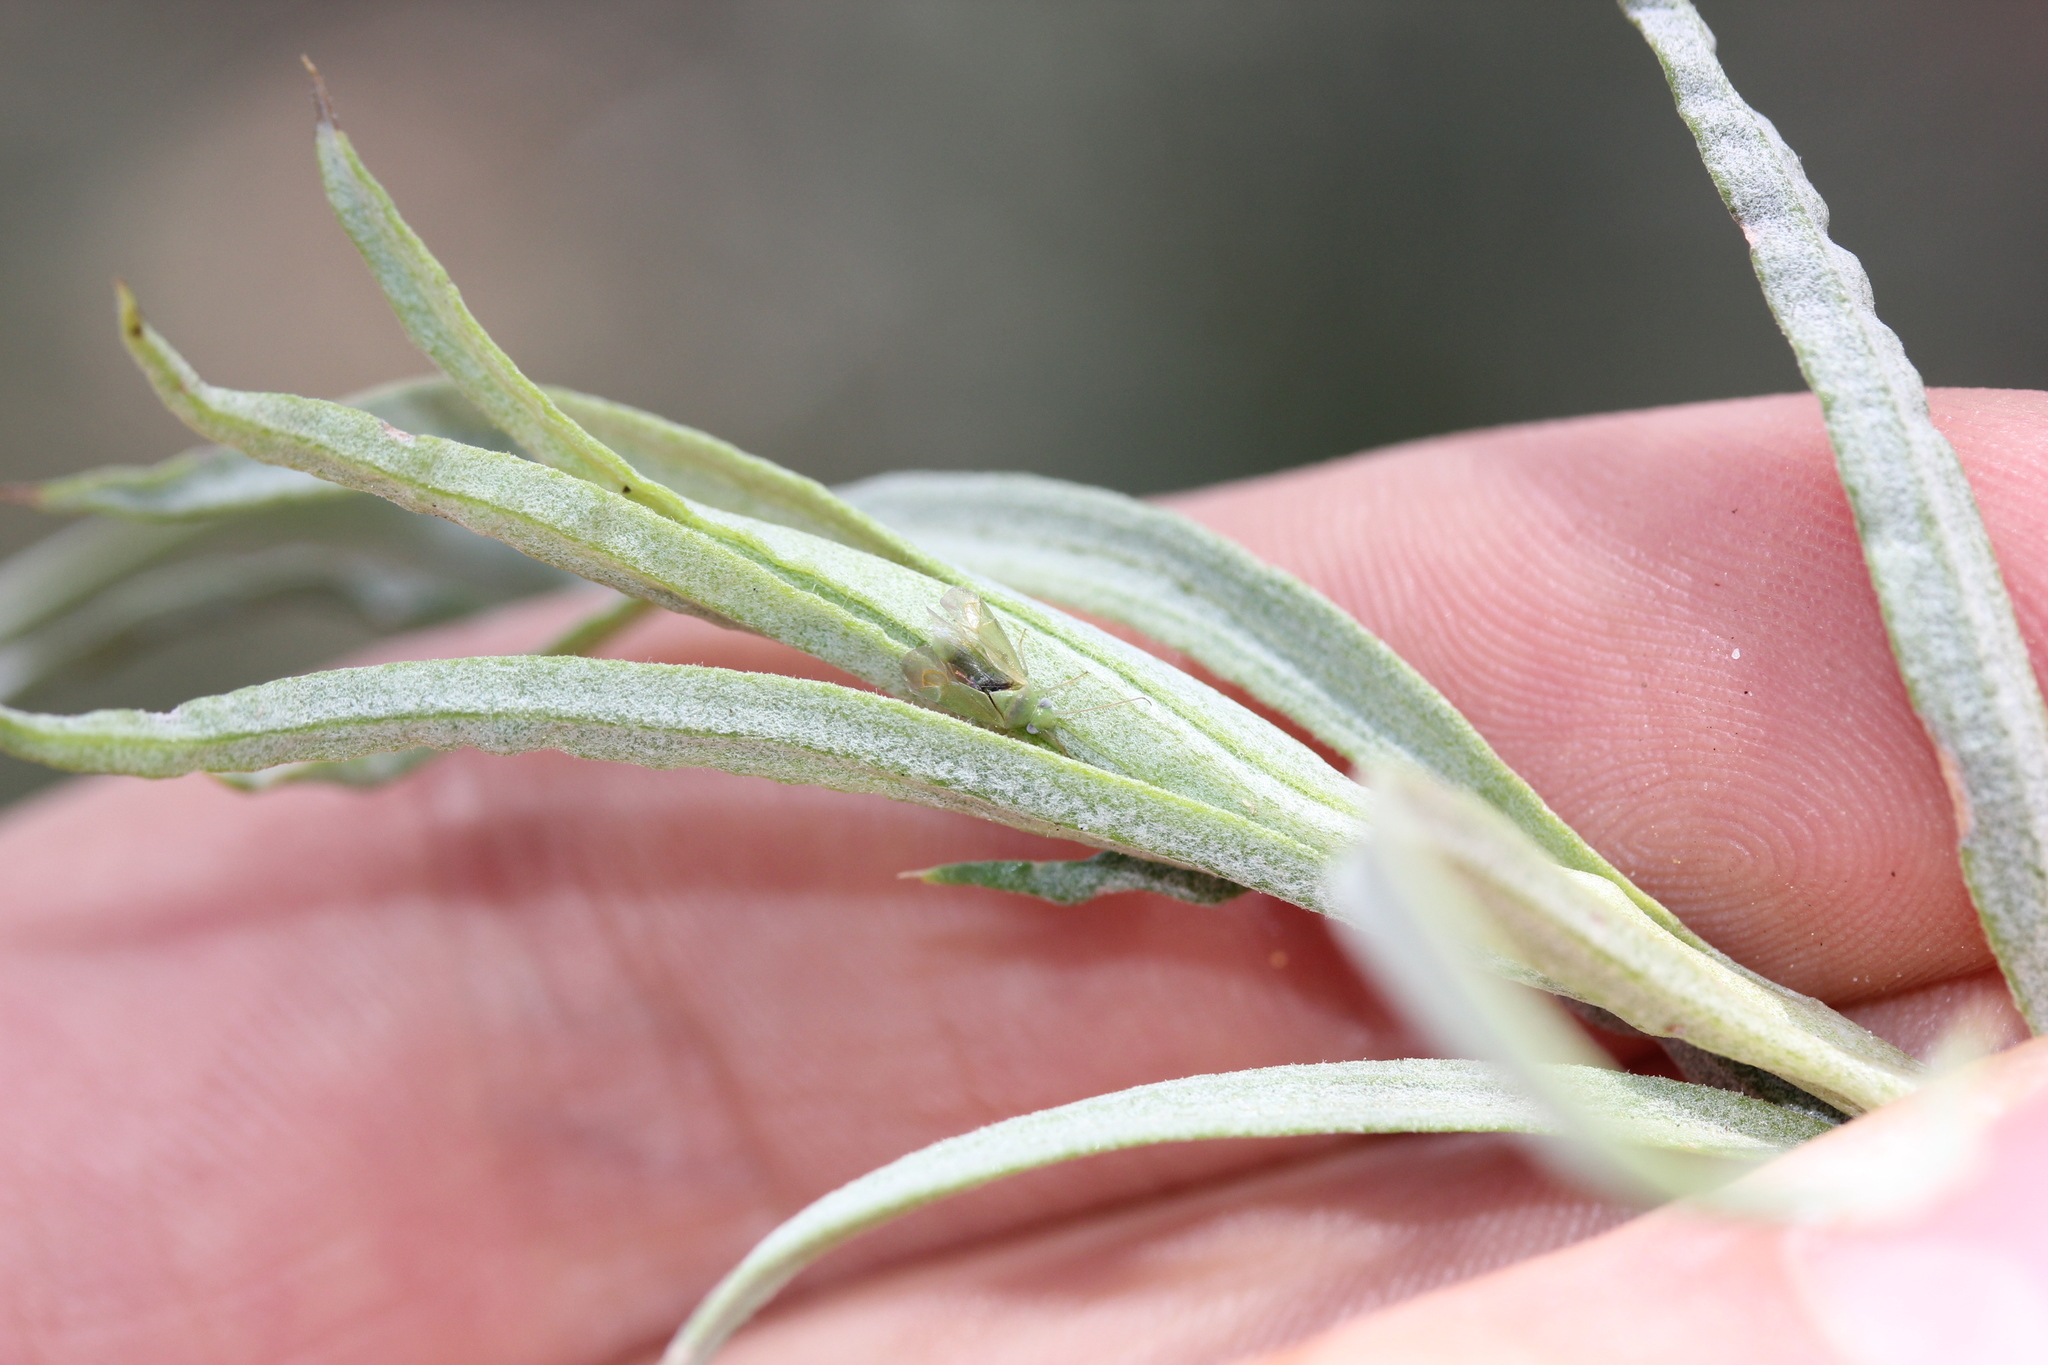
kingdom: Plantae
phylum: Tracheophyta
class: Magnoliopsida
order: Asterales
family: Asteraceae
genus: Artemisia
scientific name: Artemisia filifolia
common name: Sand-sage
